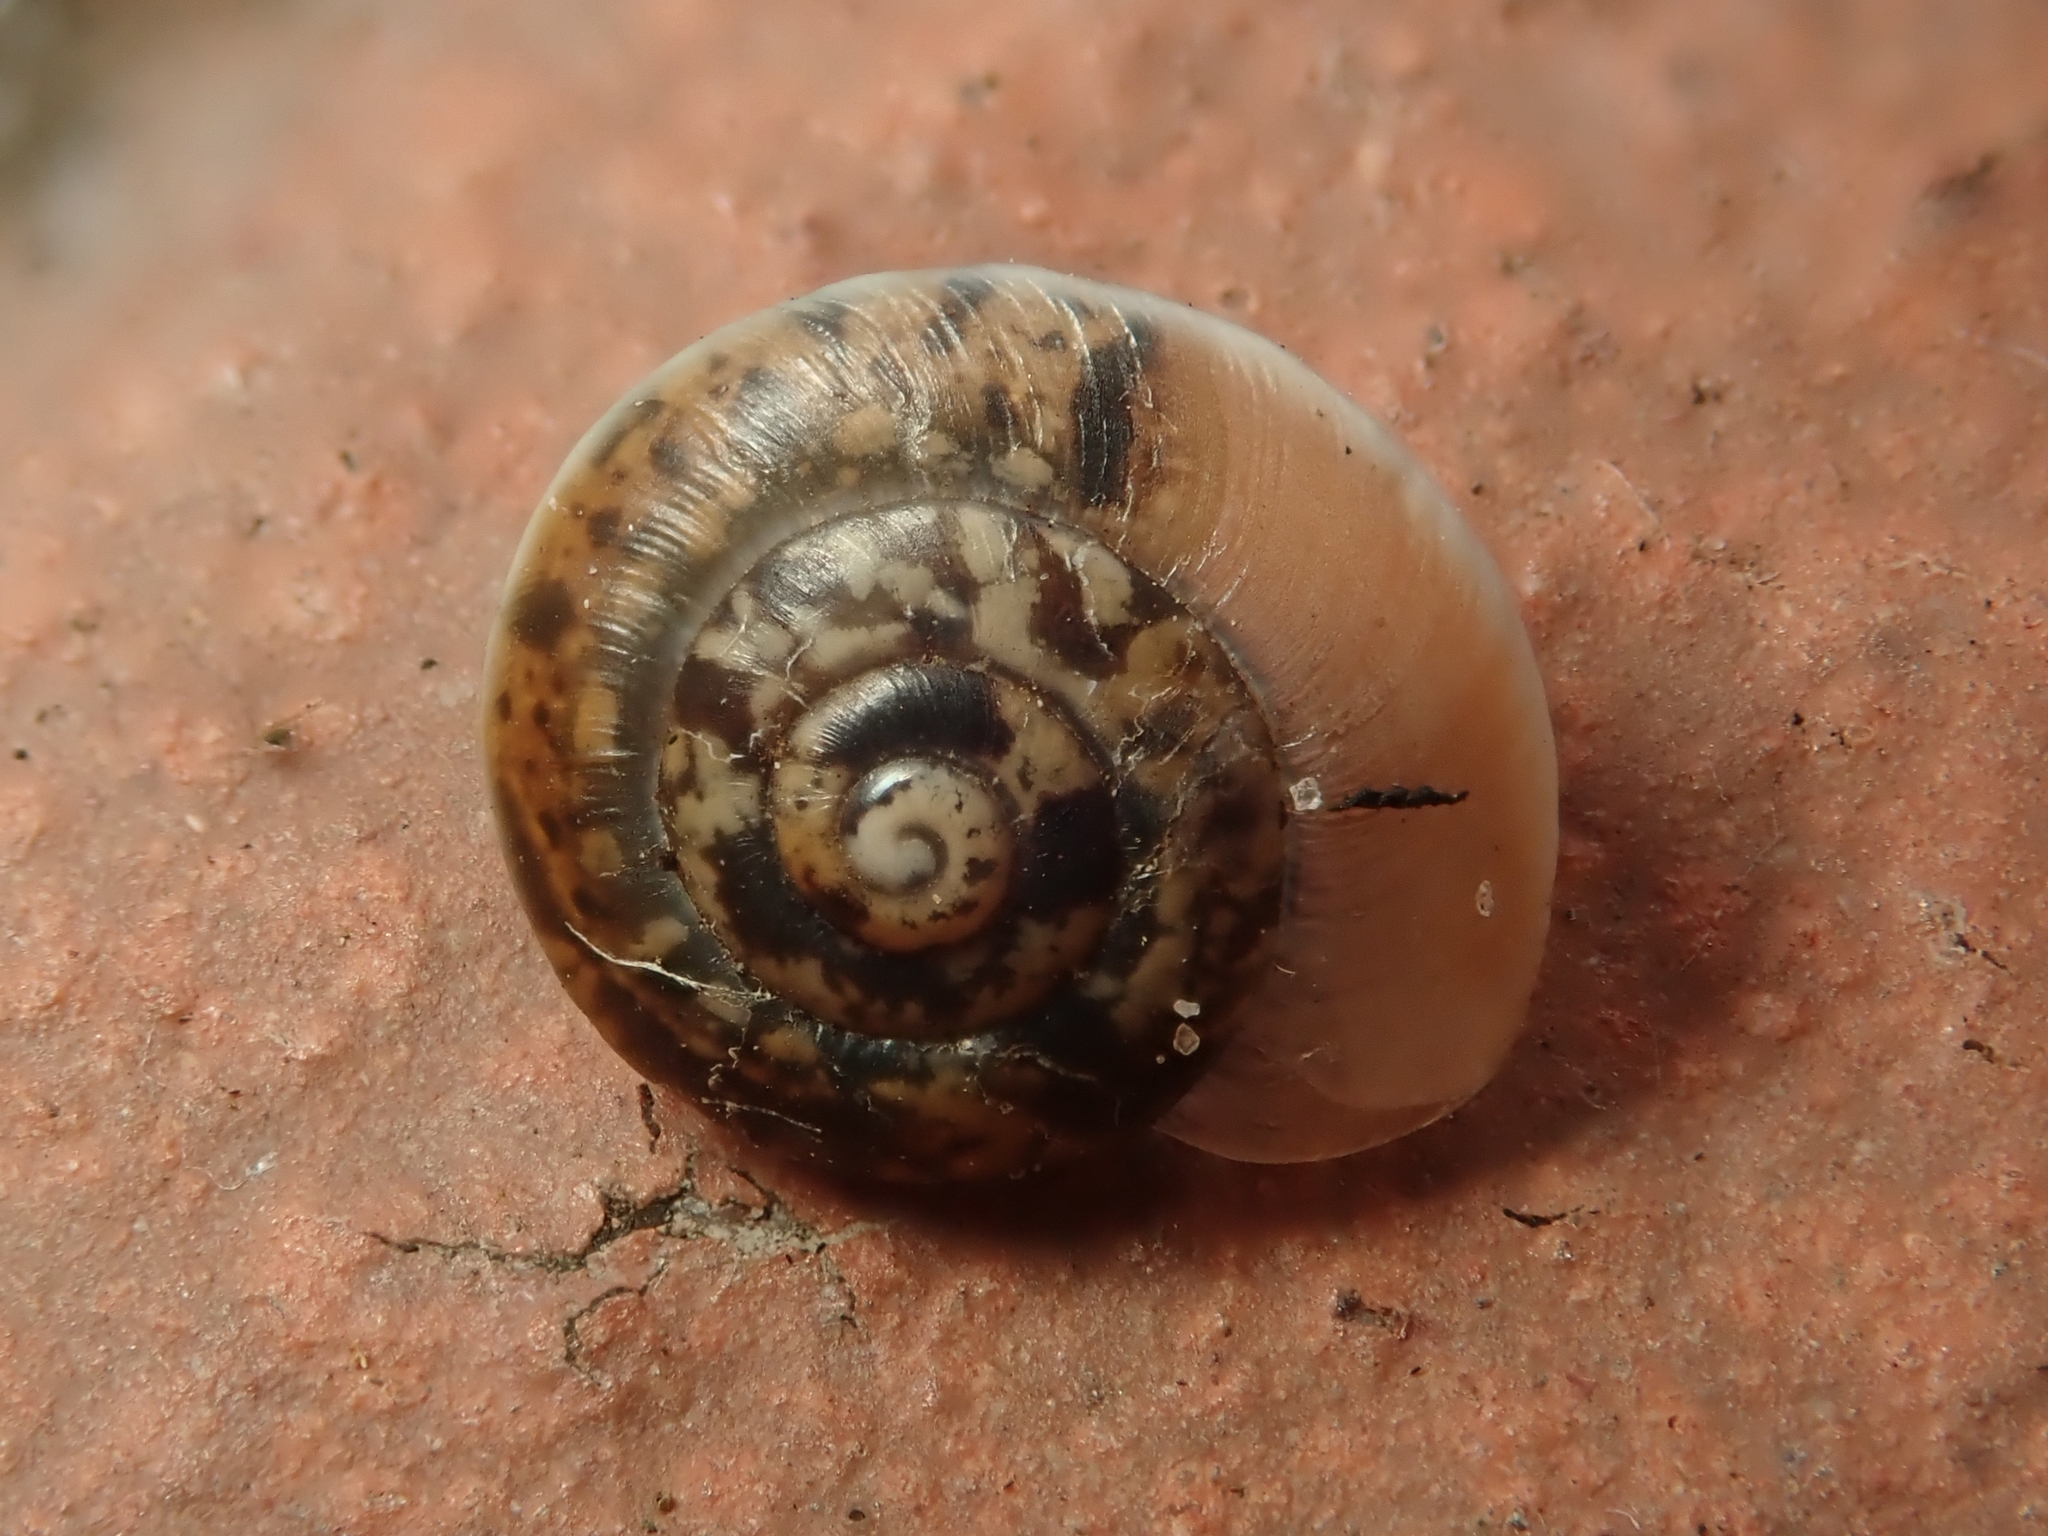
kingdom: Animalia
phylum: Mollusca
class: Gastropoda
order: Stylommatophora
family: Hygromiidae
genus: Hygromia
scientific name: Hygromia cinctella
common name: Girdled snail
